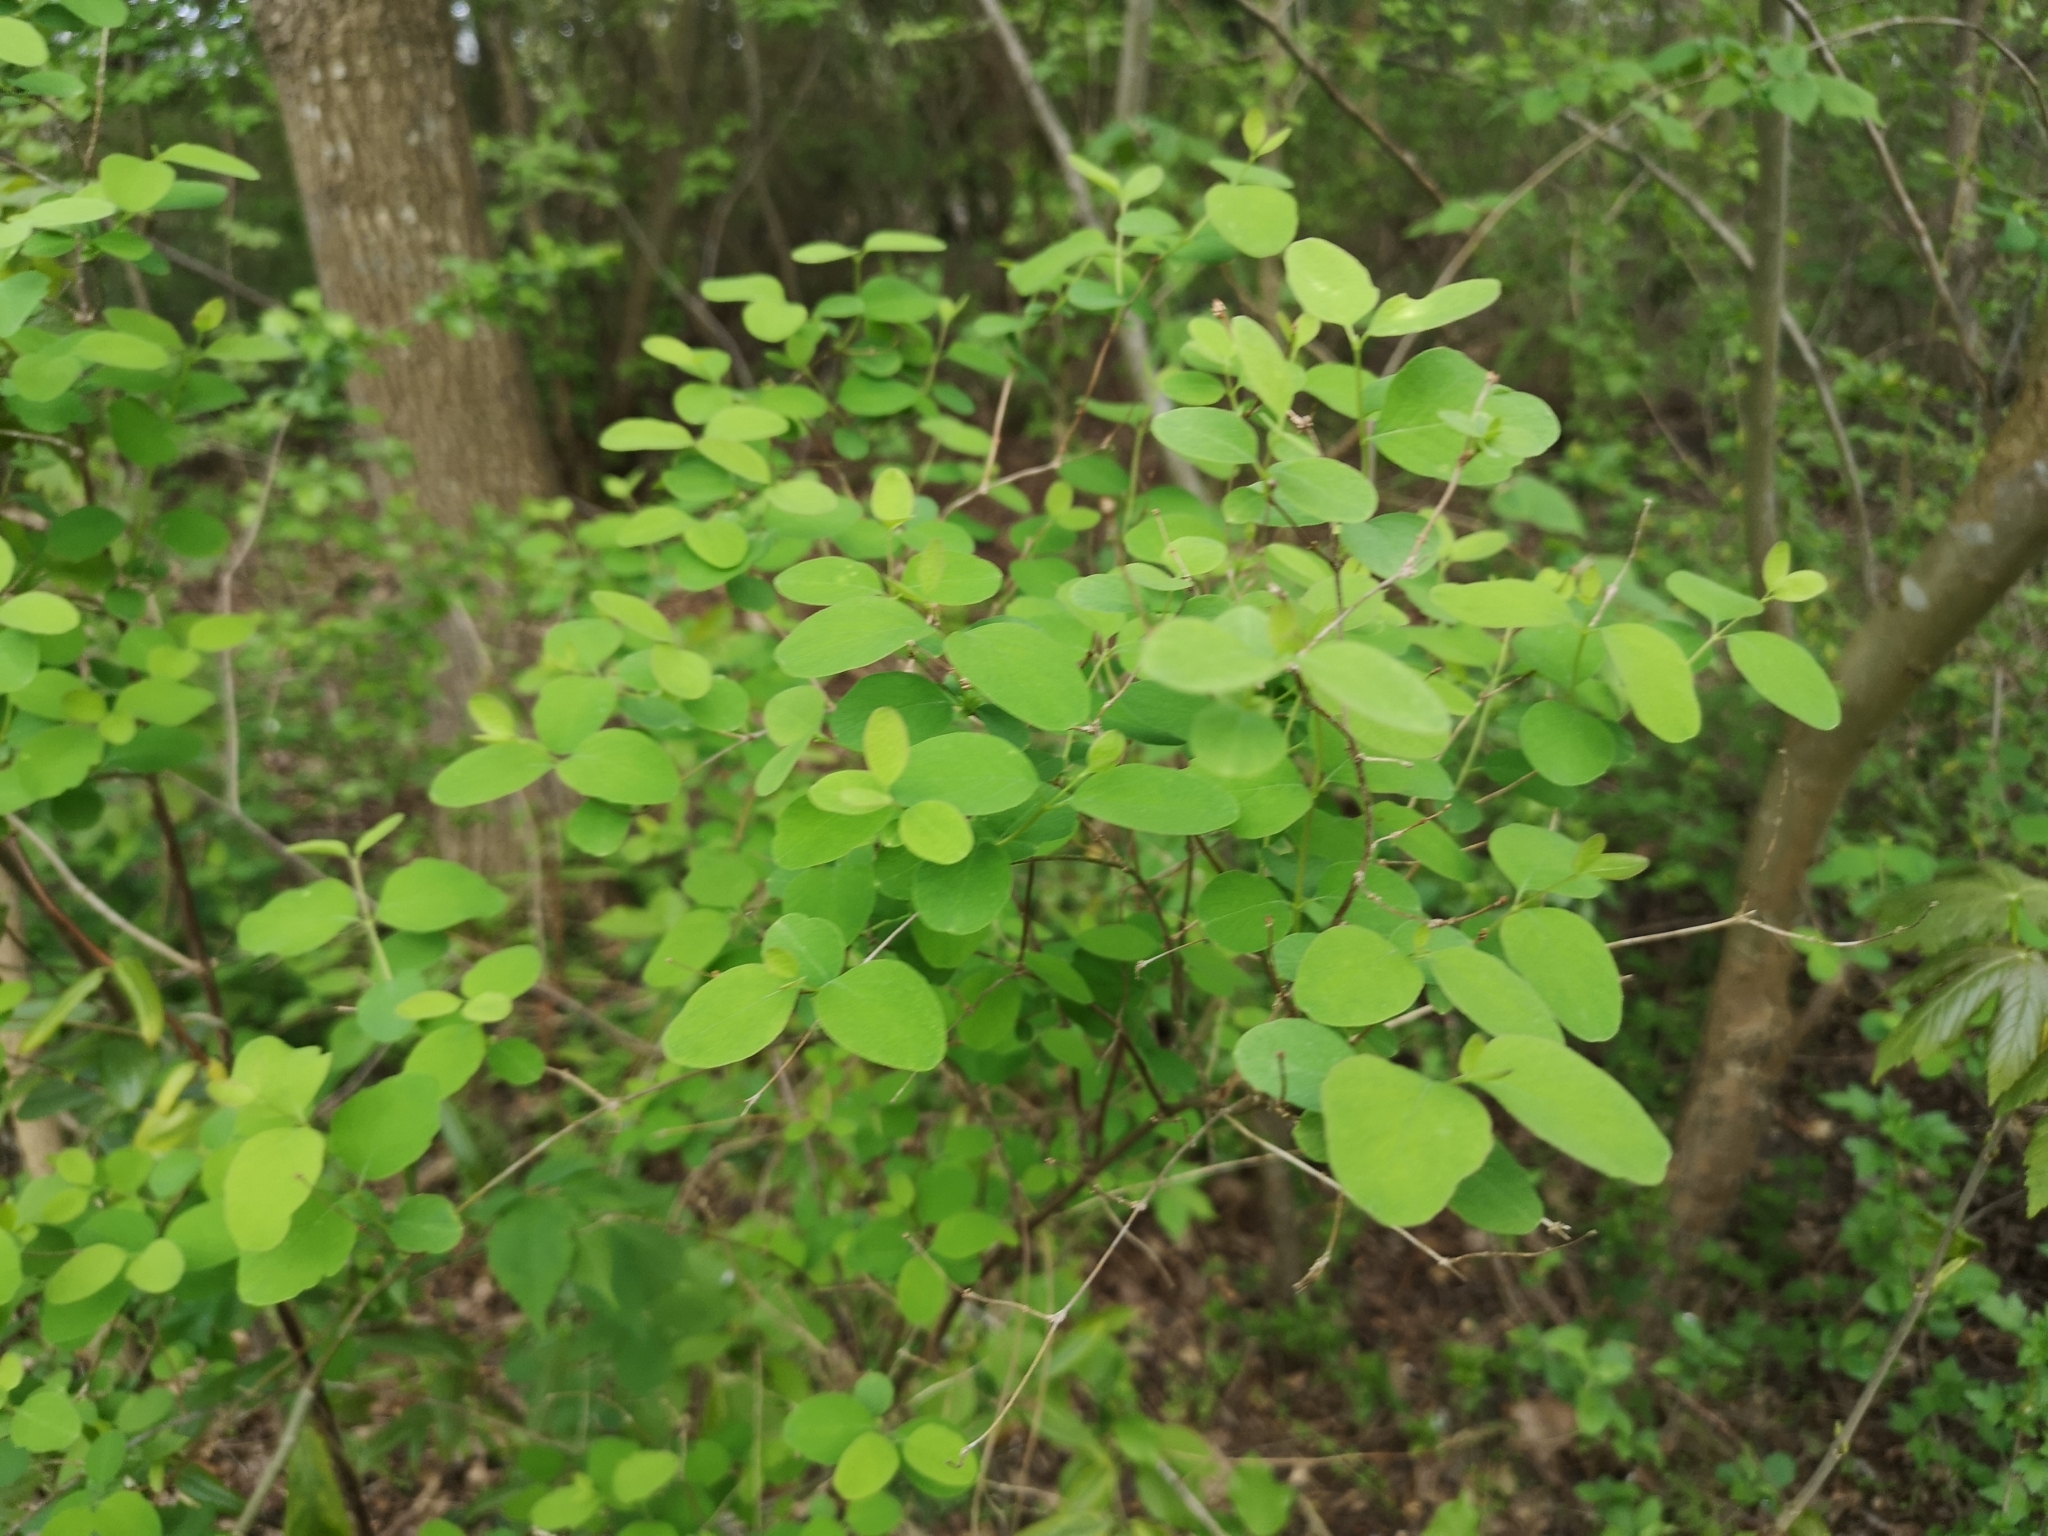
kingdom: Plantae
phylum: Tracheophyta
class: Magnoliopsida
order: Dipsacales
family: Caprifoliaceae
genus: Symphoricarpos
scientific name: Symphoricarpos albus
